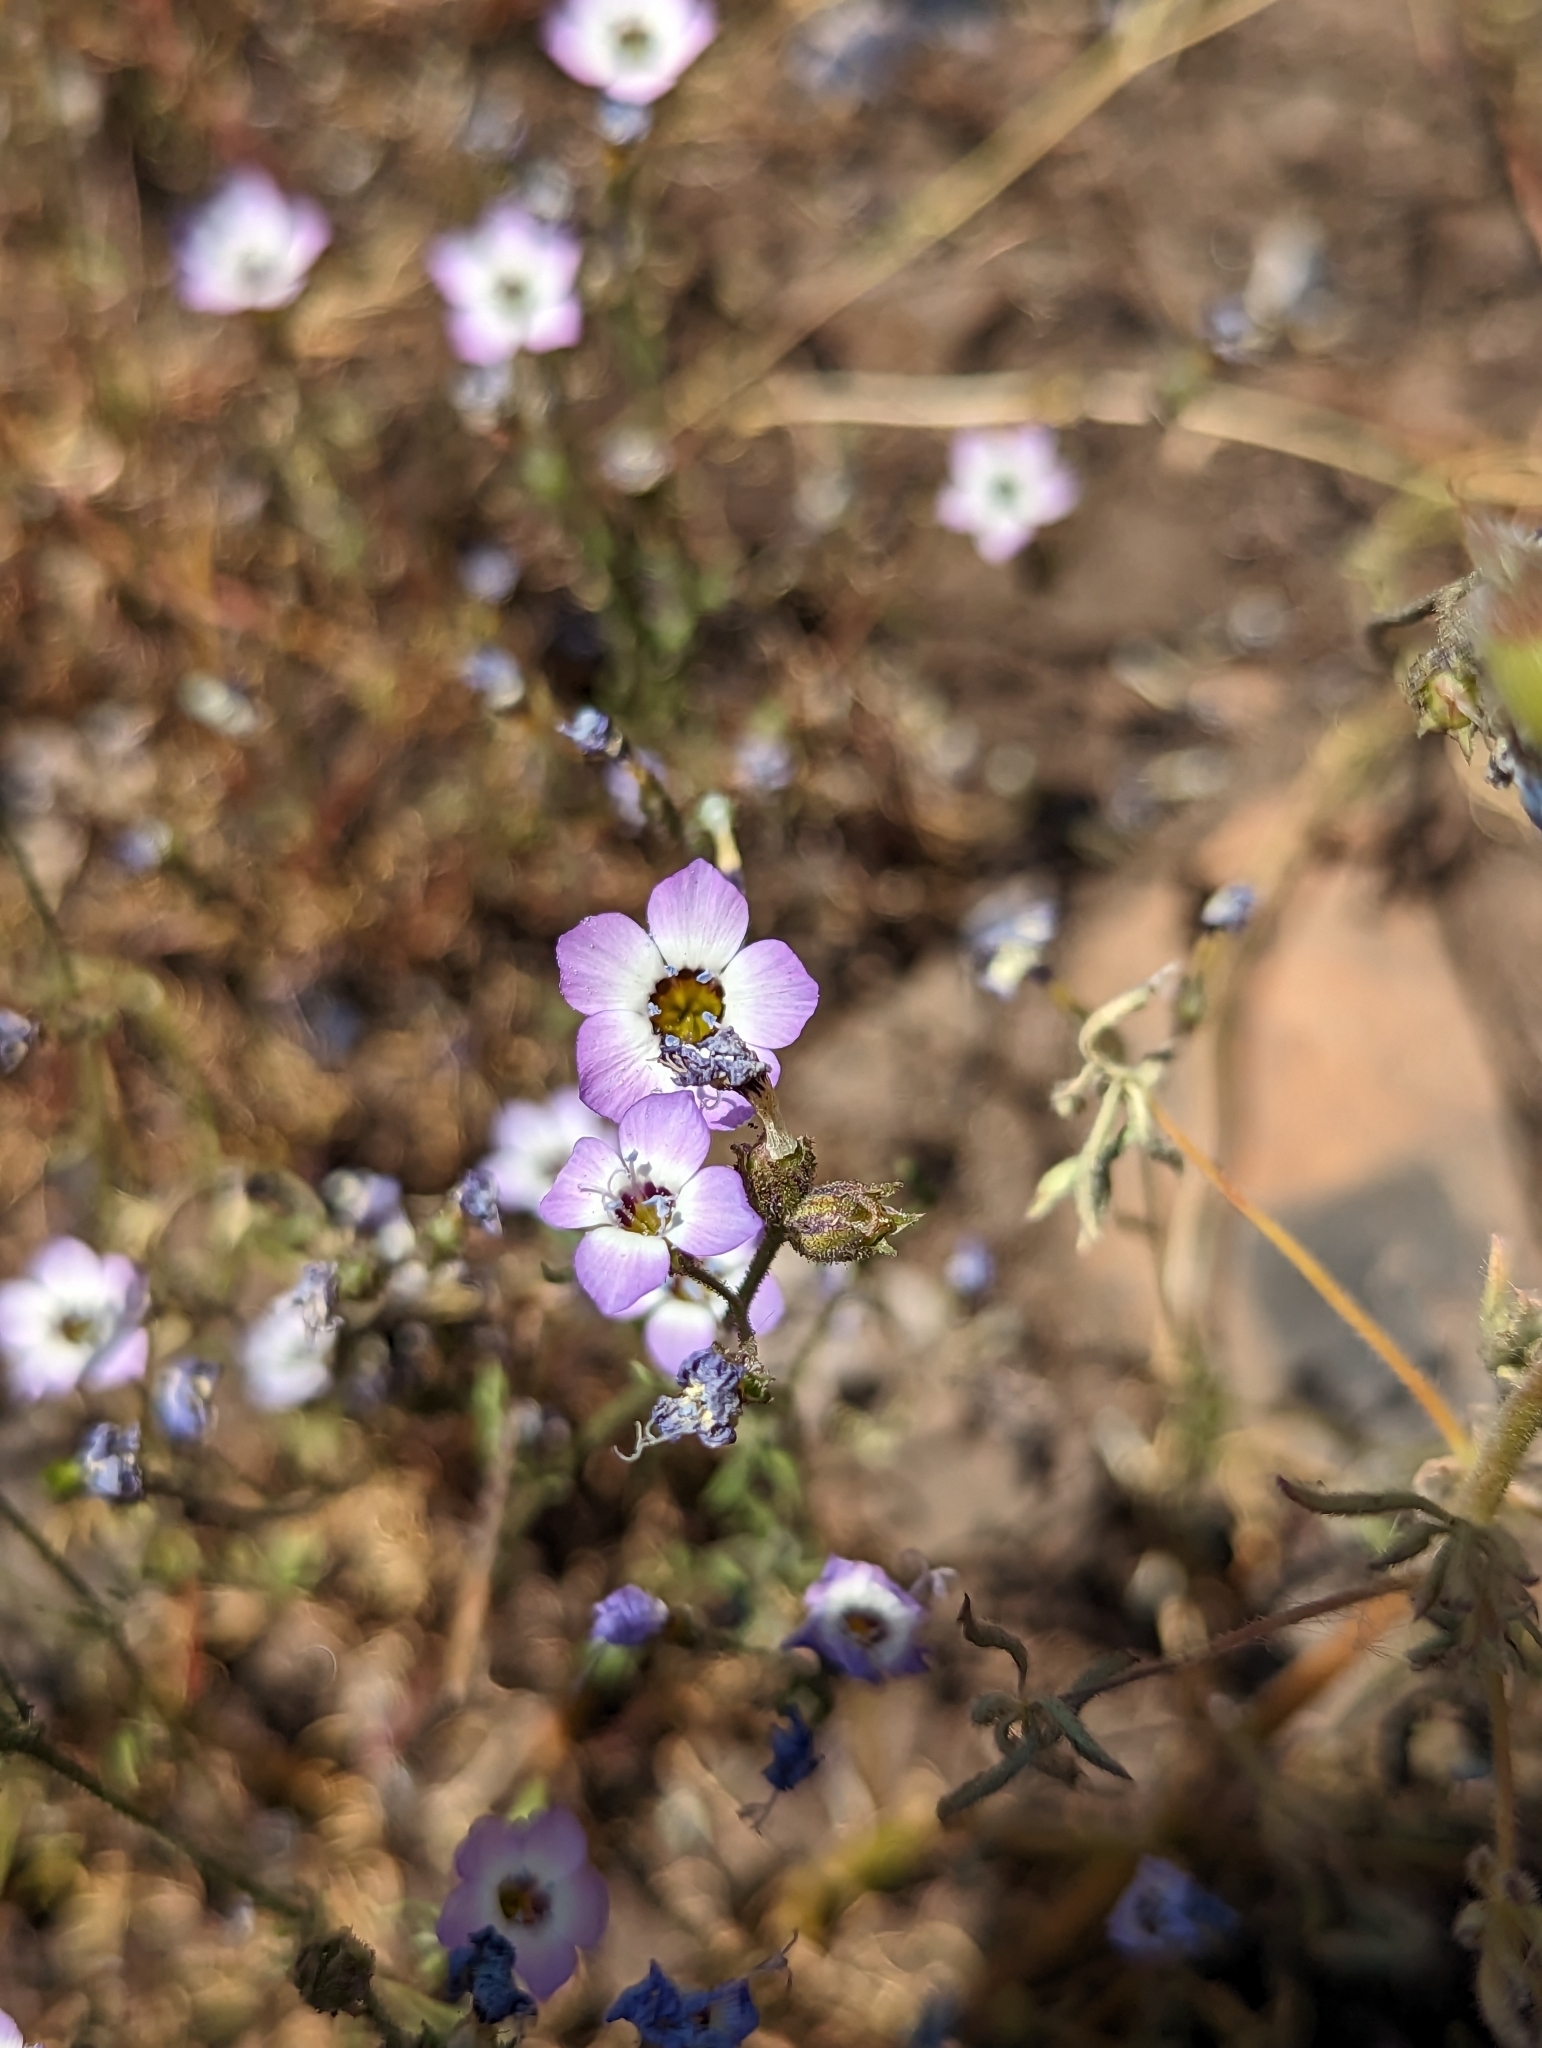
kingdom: Plantae
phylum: Tracheophyta
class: Magnoliopsida
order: Ericales
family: Polemoniaceae
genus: Gilia
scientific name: Gilia tricolor
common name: Bird's-eyes
